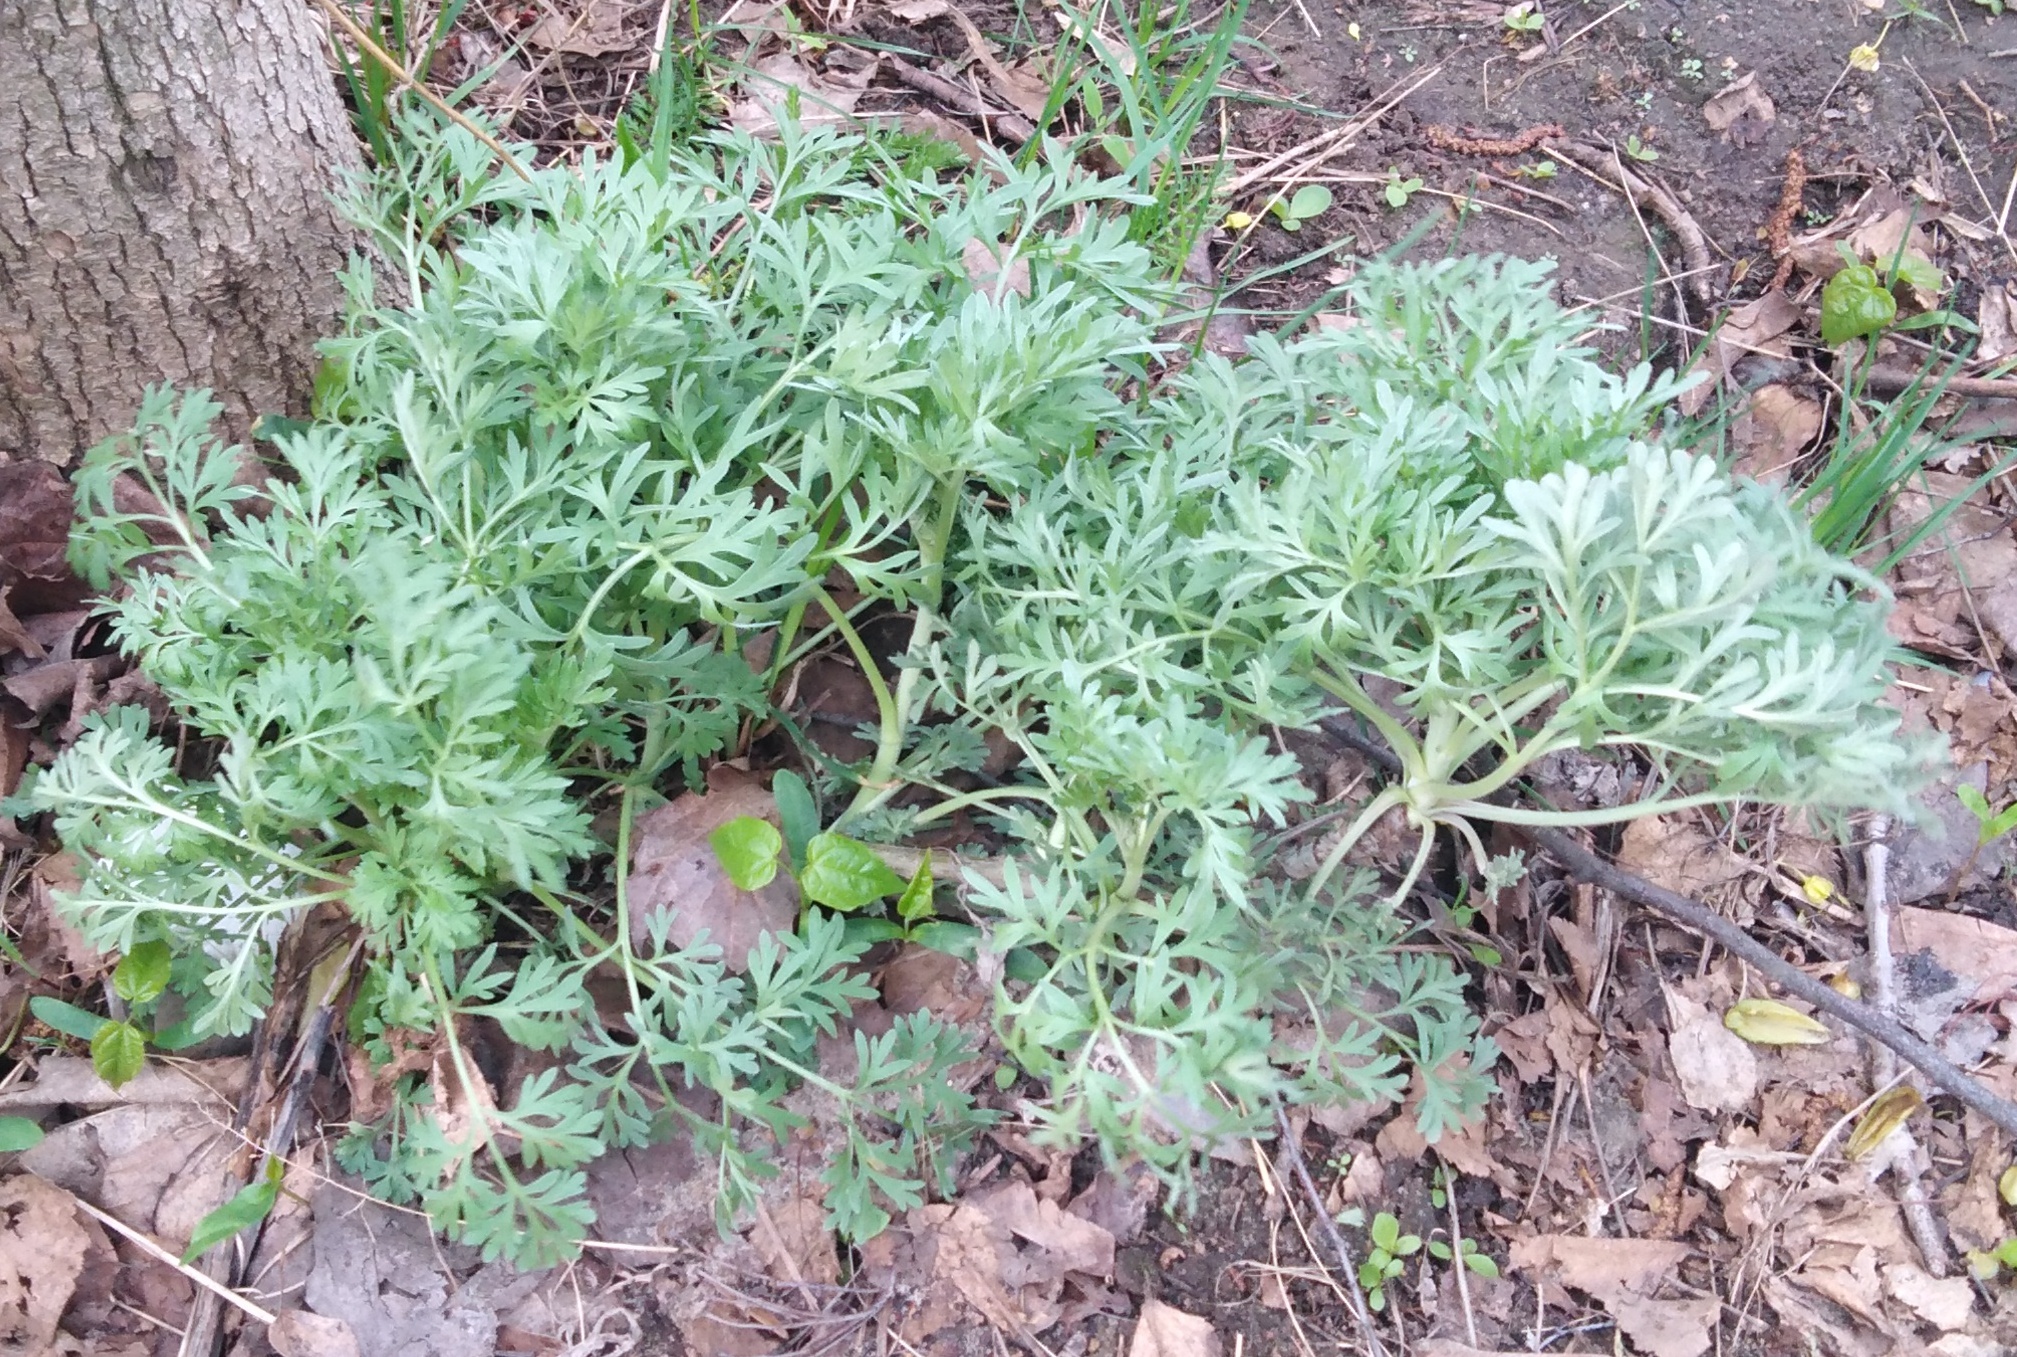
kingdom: Plantae
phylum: Tracheophyta
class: Magnoliopsida
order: Asterales
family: Asteraceae
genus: Artemisia
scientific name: Artemisia absinthium
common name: Wormwood
